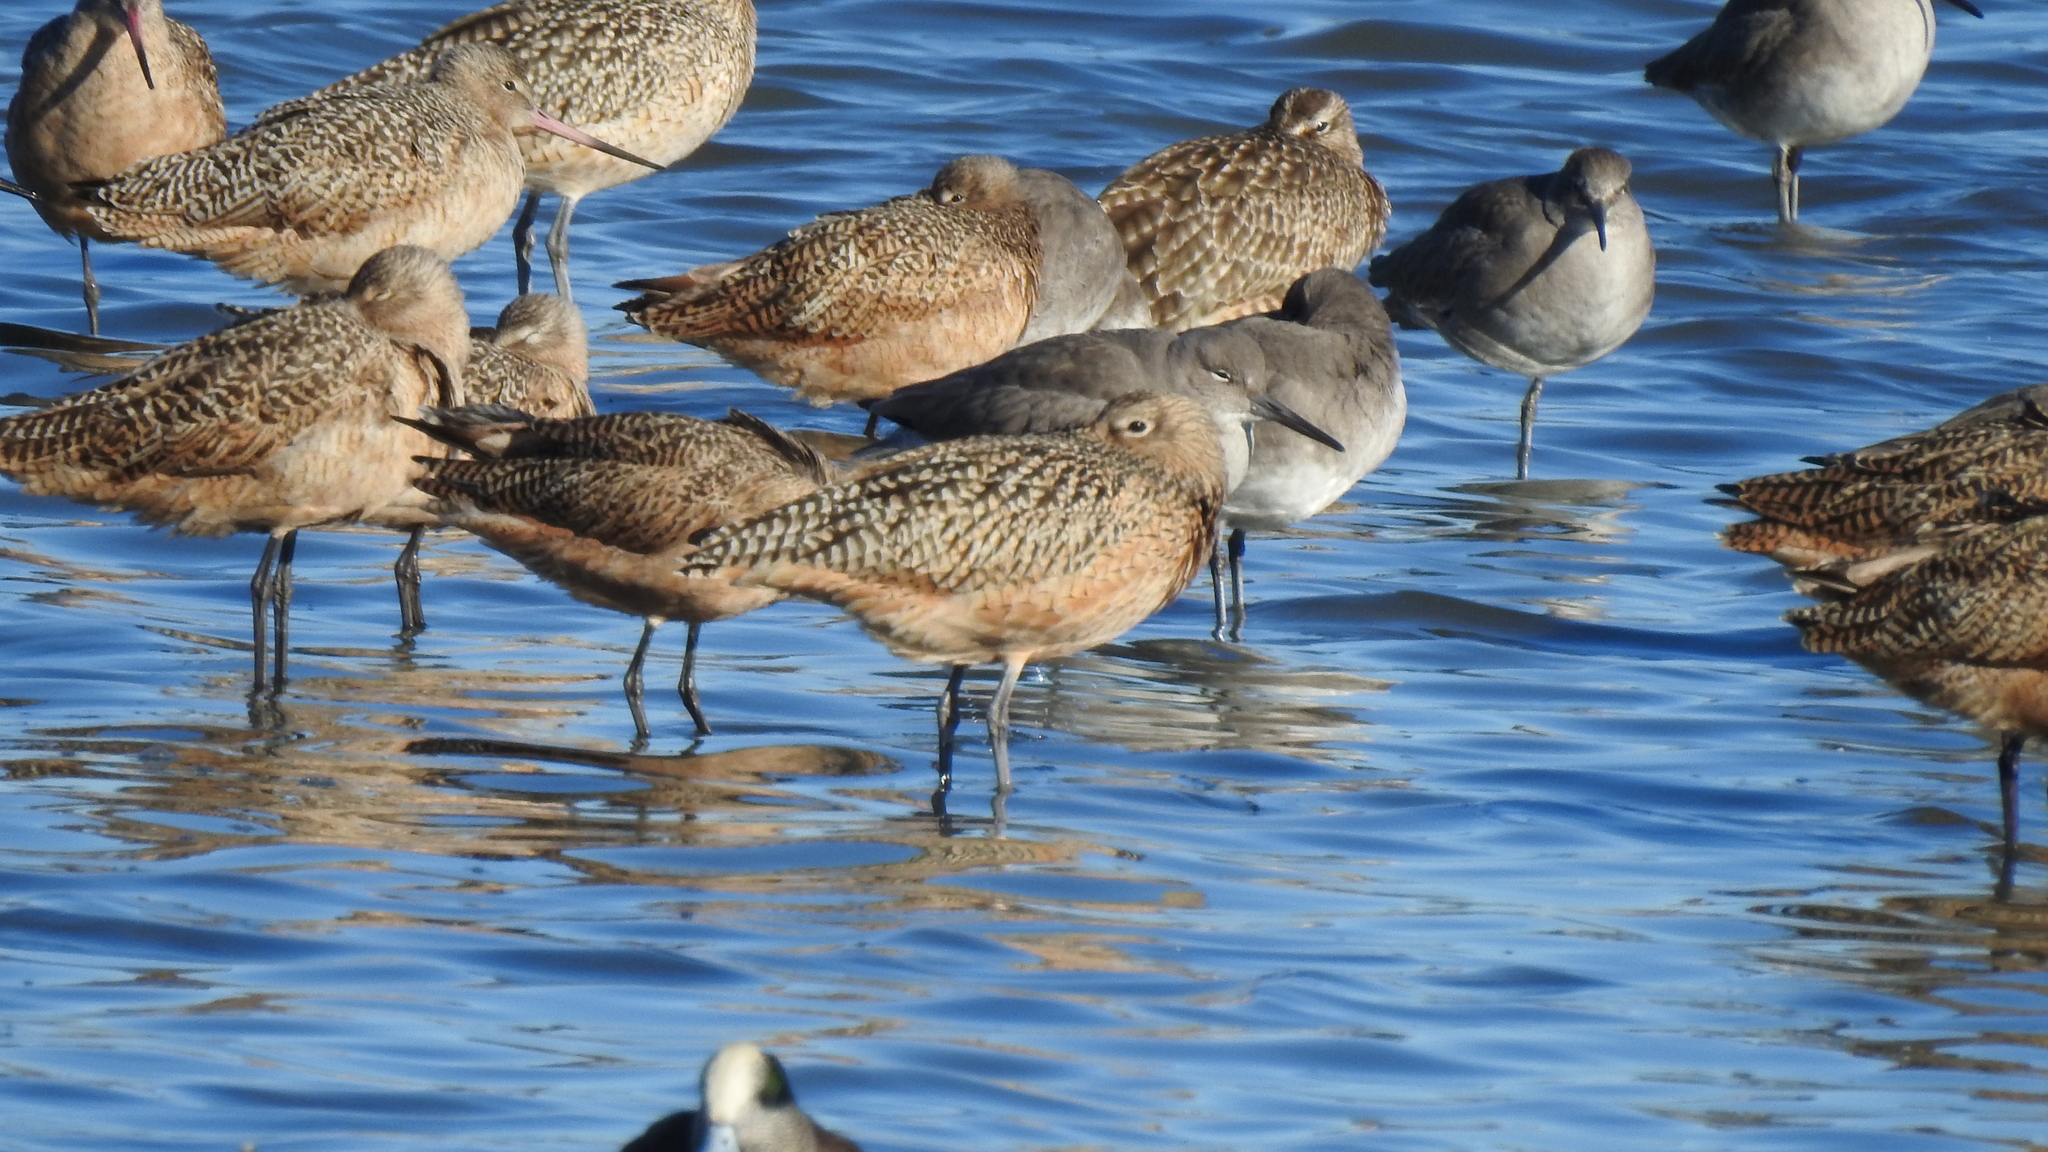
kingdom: Animalia
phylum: Chordata
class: Aves
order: Charadriiformes
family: Scolopacidae
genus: Limosa
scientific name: Limosa fedoa
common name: Marbled godwit
